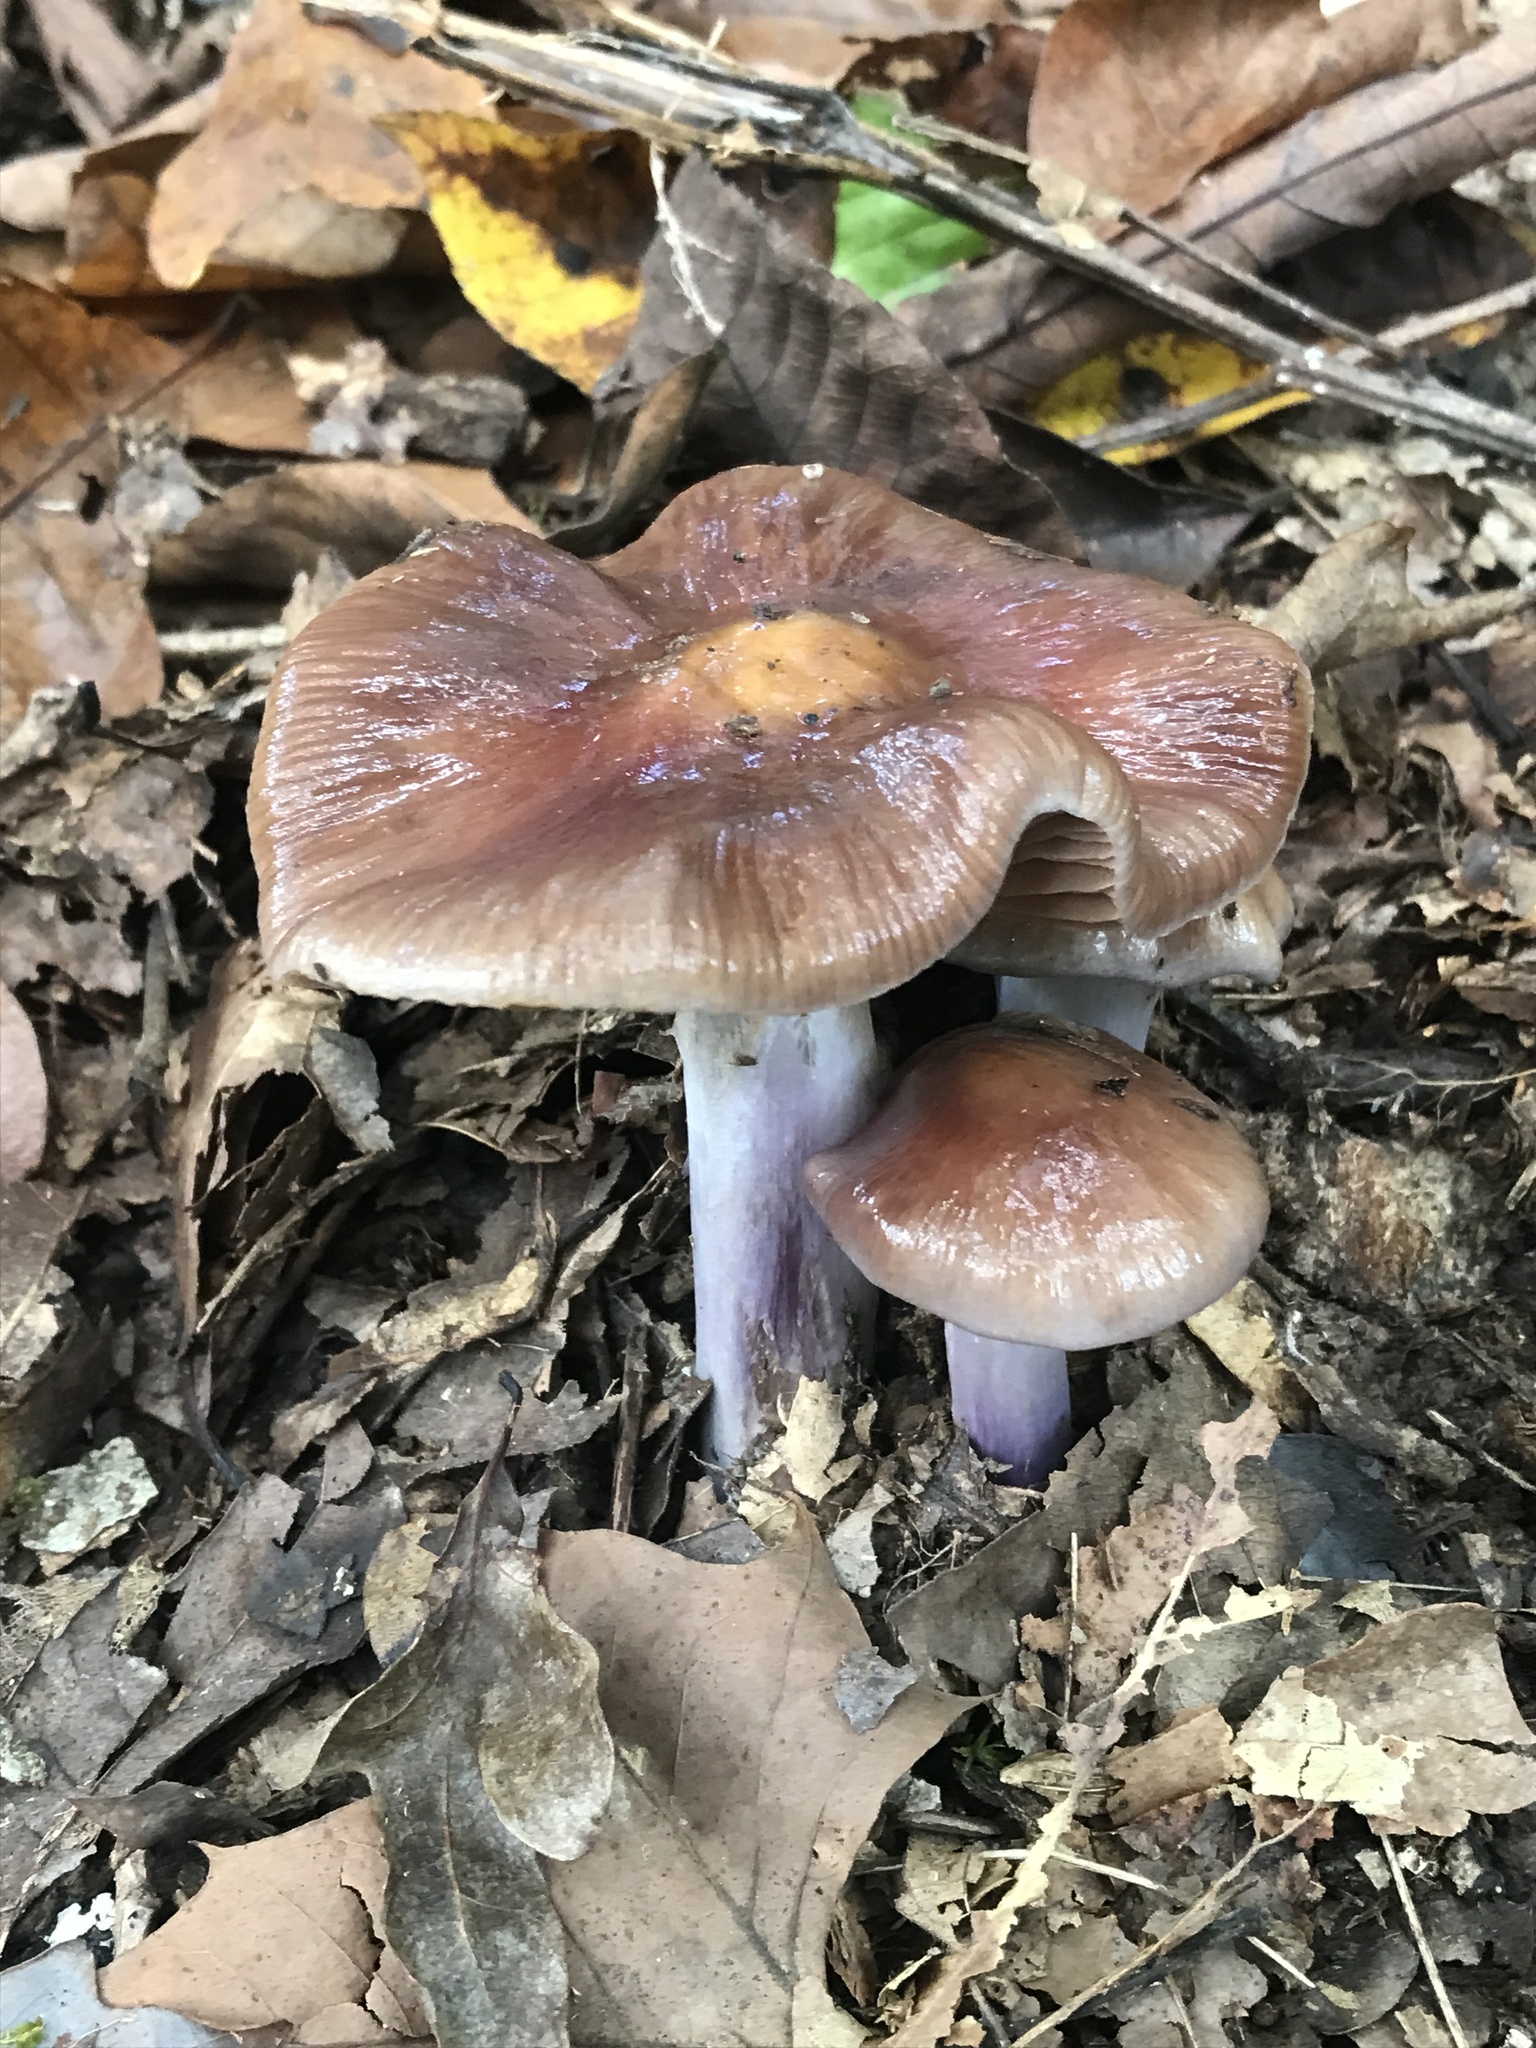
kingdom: Fungi
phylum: Basidiomycota
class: Agaricomycetes
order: Agaricales
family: Cortinariaceae
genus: Cortinarius
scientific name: Cortinarius splendidus
